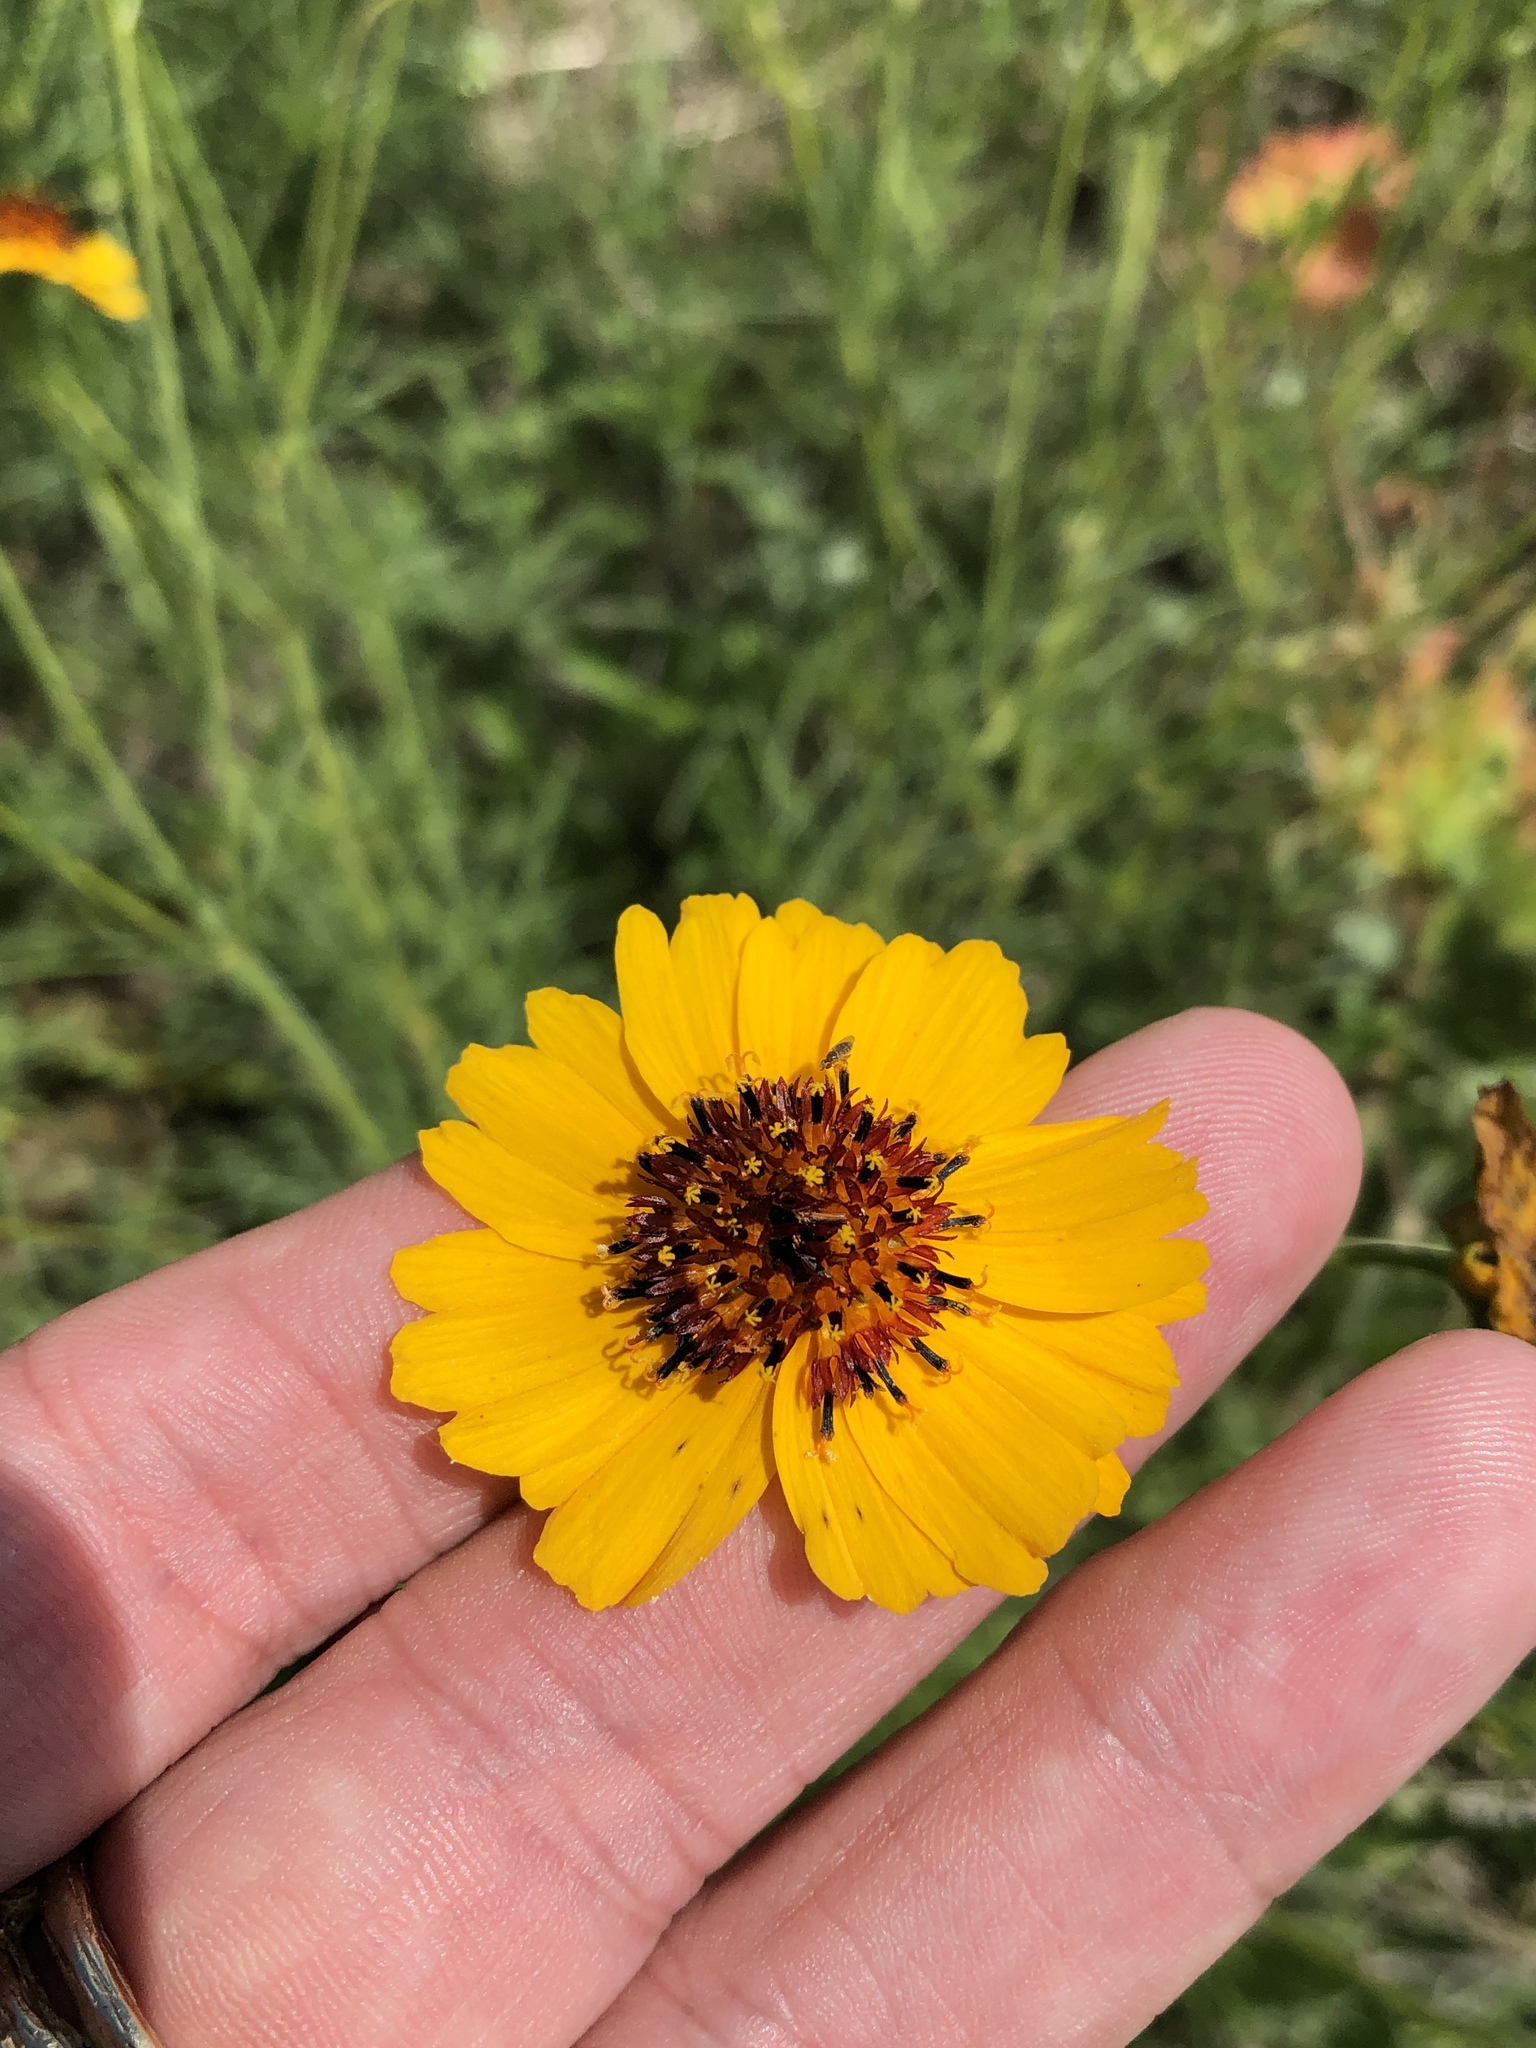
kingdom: Plantae
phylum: Tracheophyta
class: Magnoliopsida
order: Asterales
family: Asteraceae
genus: Thelesperma
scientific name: Thelesperma filifolium
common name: Stiff greenthread
